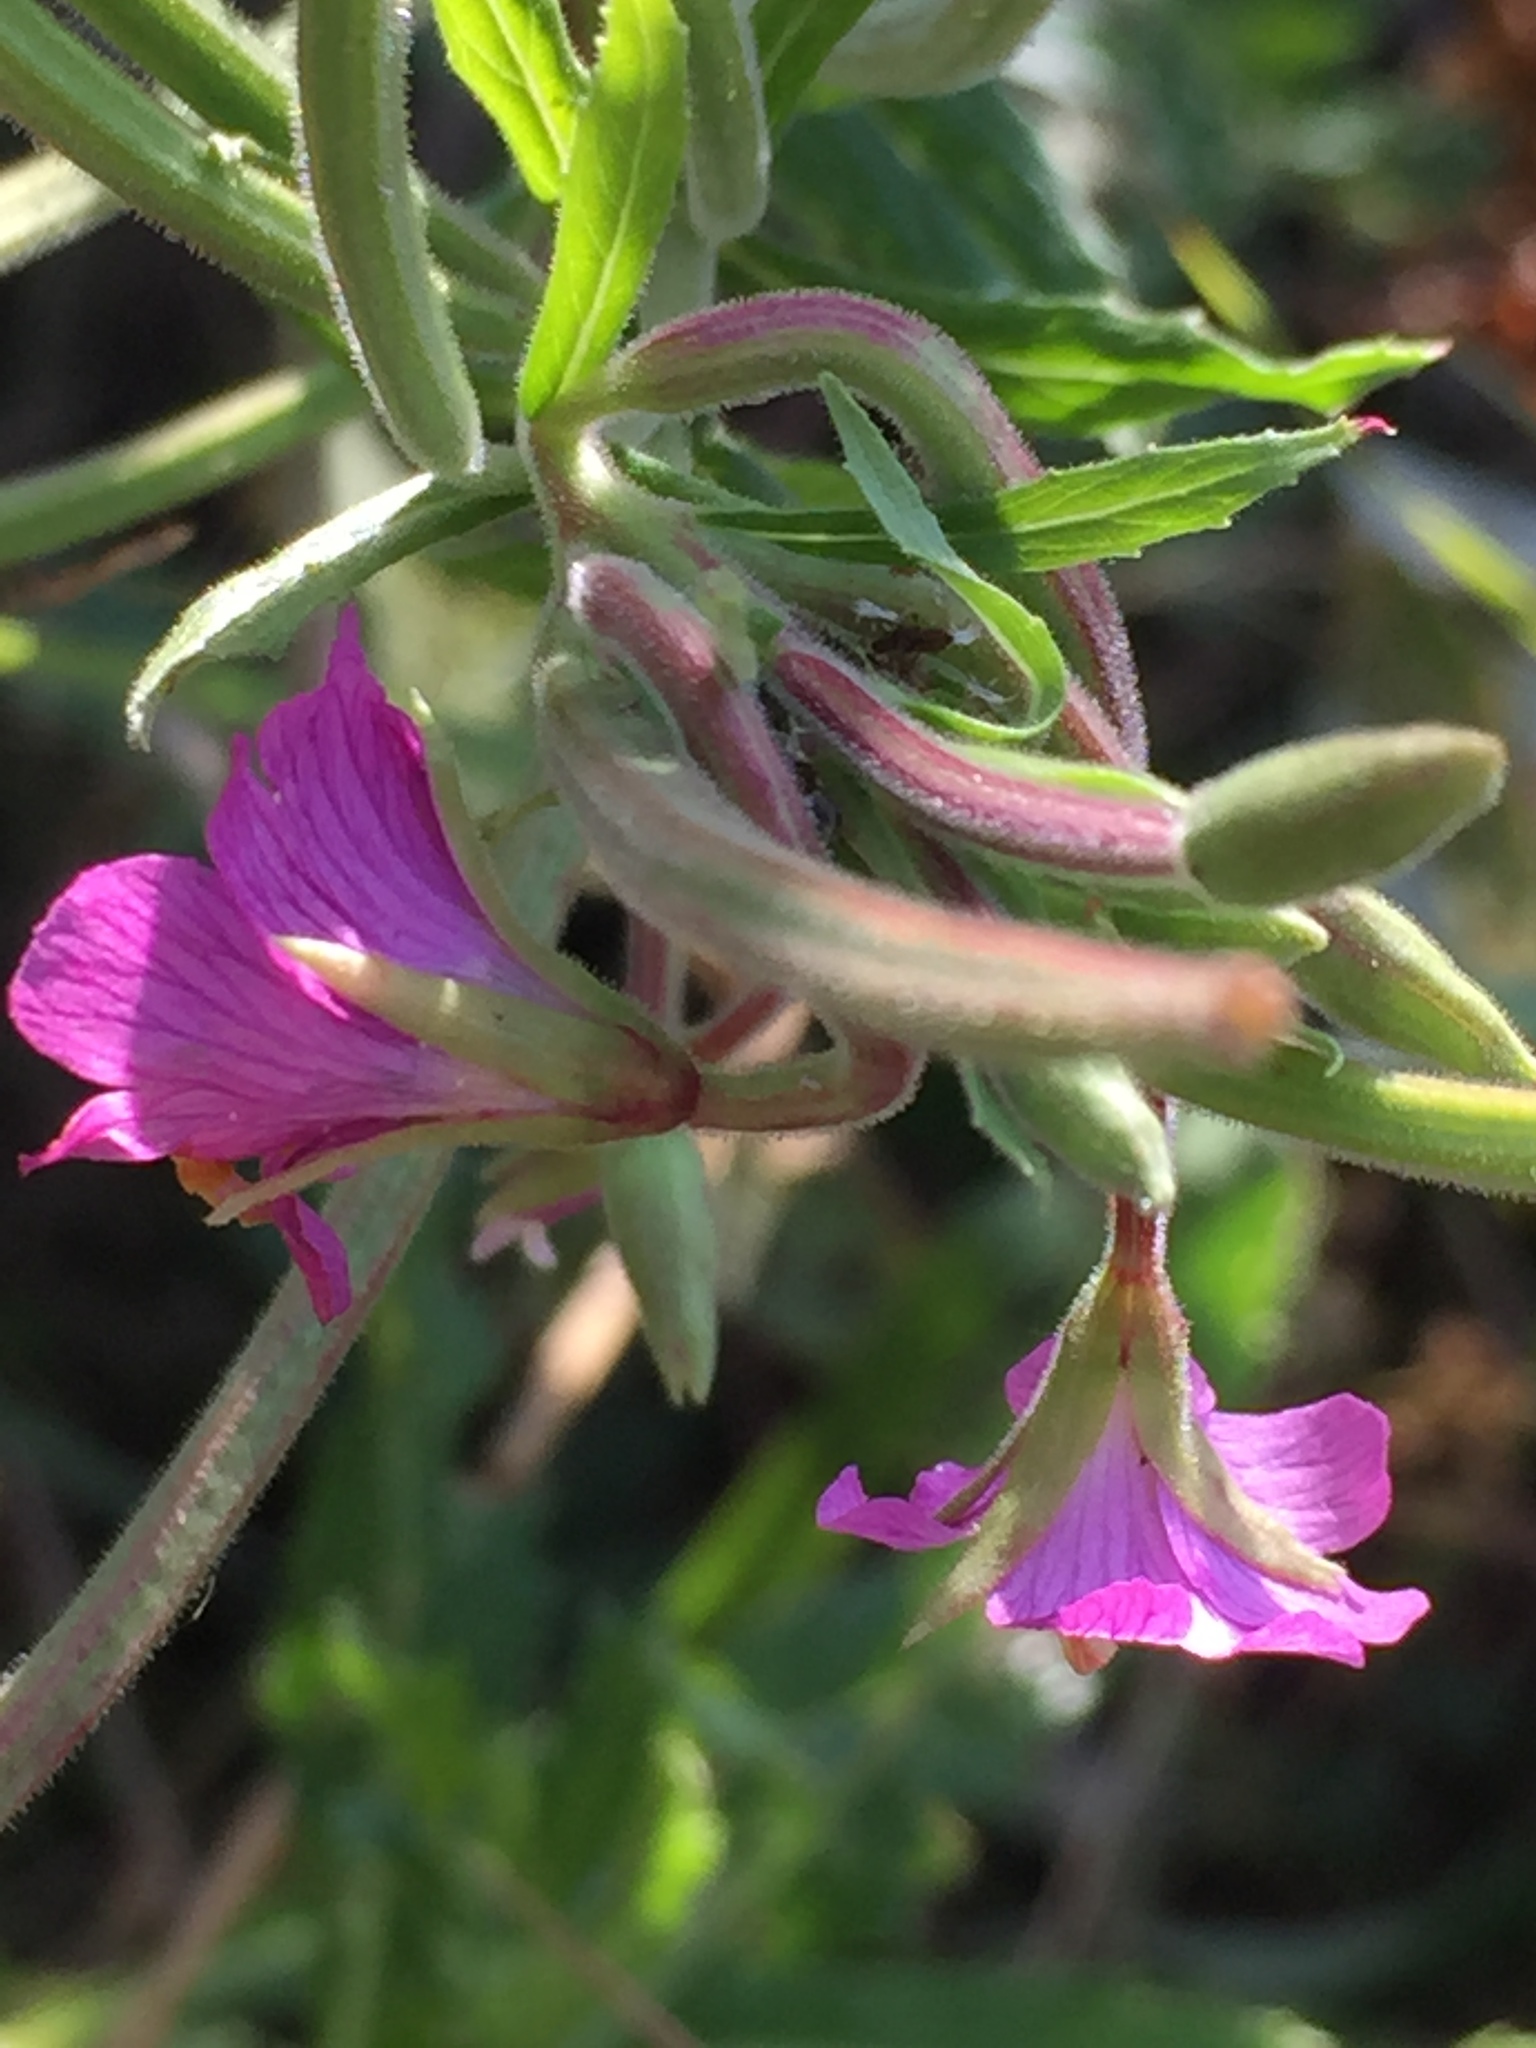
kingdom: Plantae
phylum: Tracheophyta
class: Magnoliopsida
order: Myrtales
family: Onagraceae
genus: Epilobium
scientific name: Epilobium hirsutum
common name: Great willowherb
